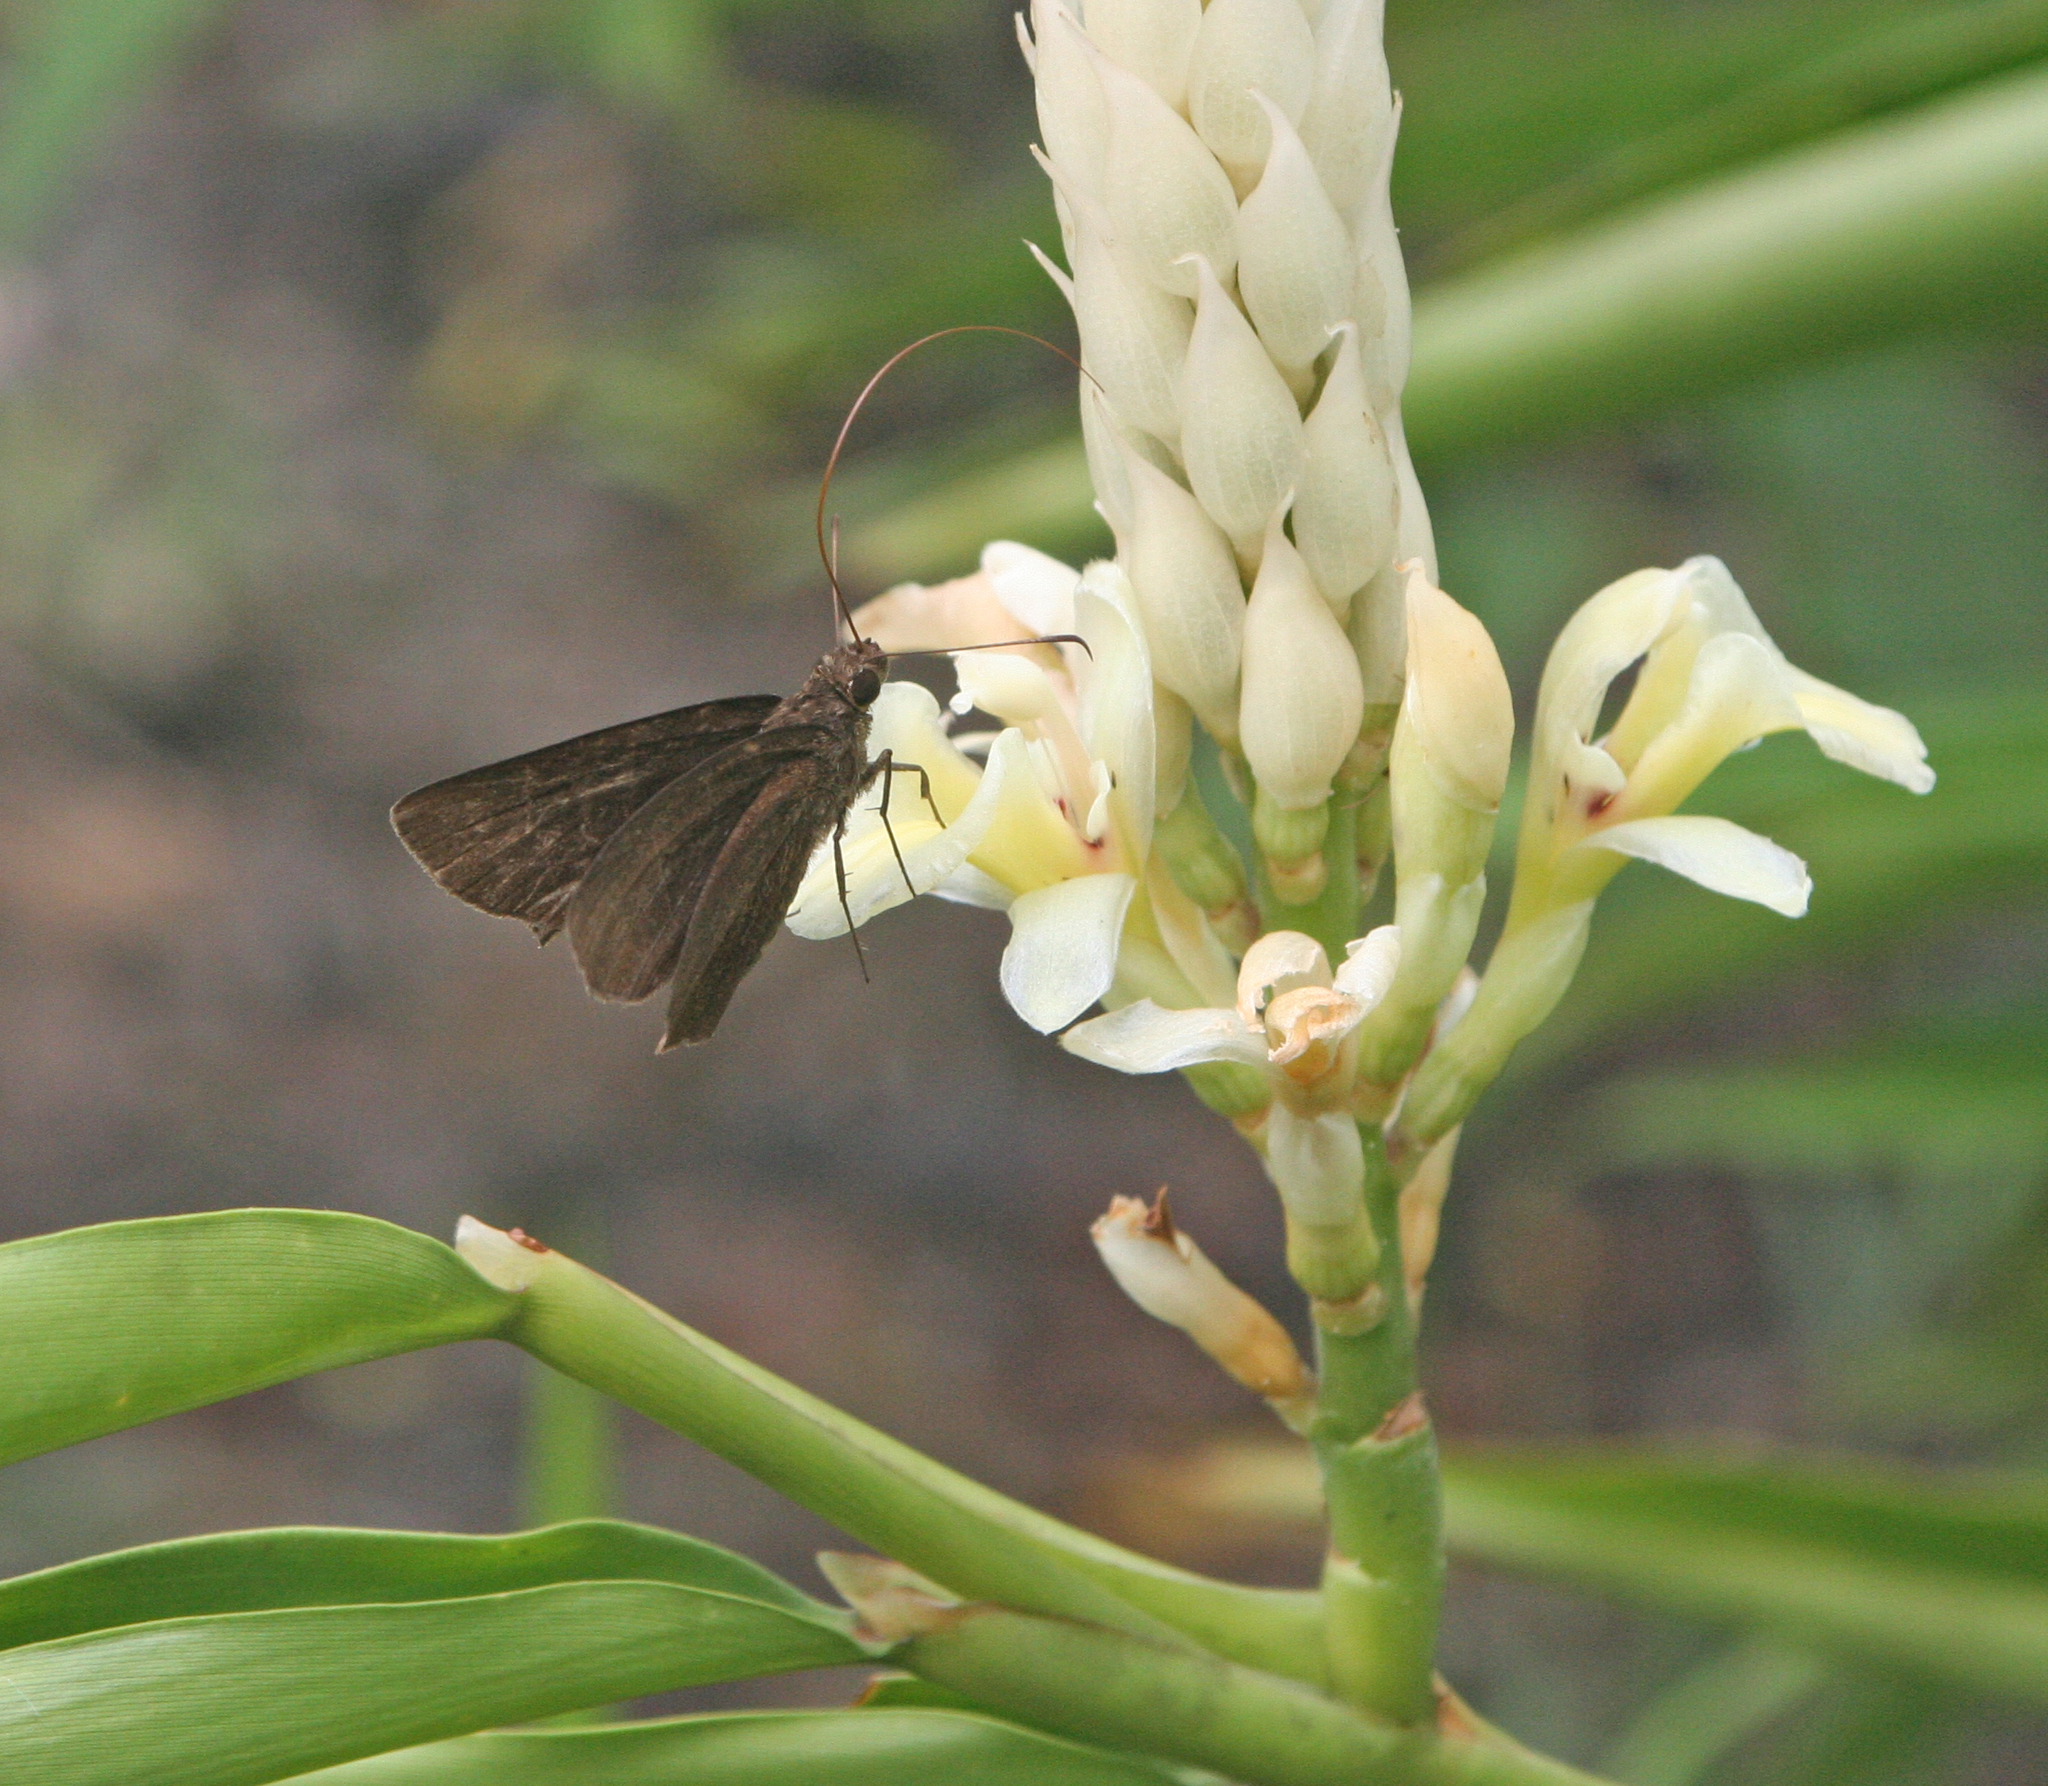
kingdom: Animalia
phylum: Arthropoda
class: Insecta
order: Lepidoptera
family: Hesperiidae
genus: Ancistroides
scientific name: Ancistroides nigrita
